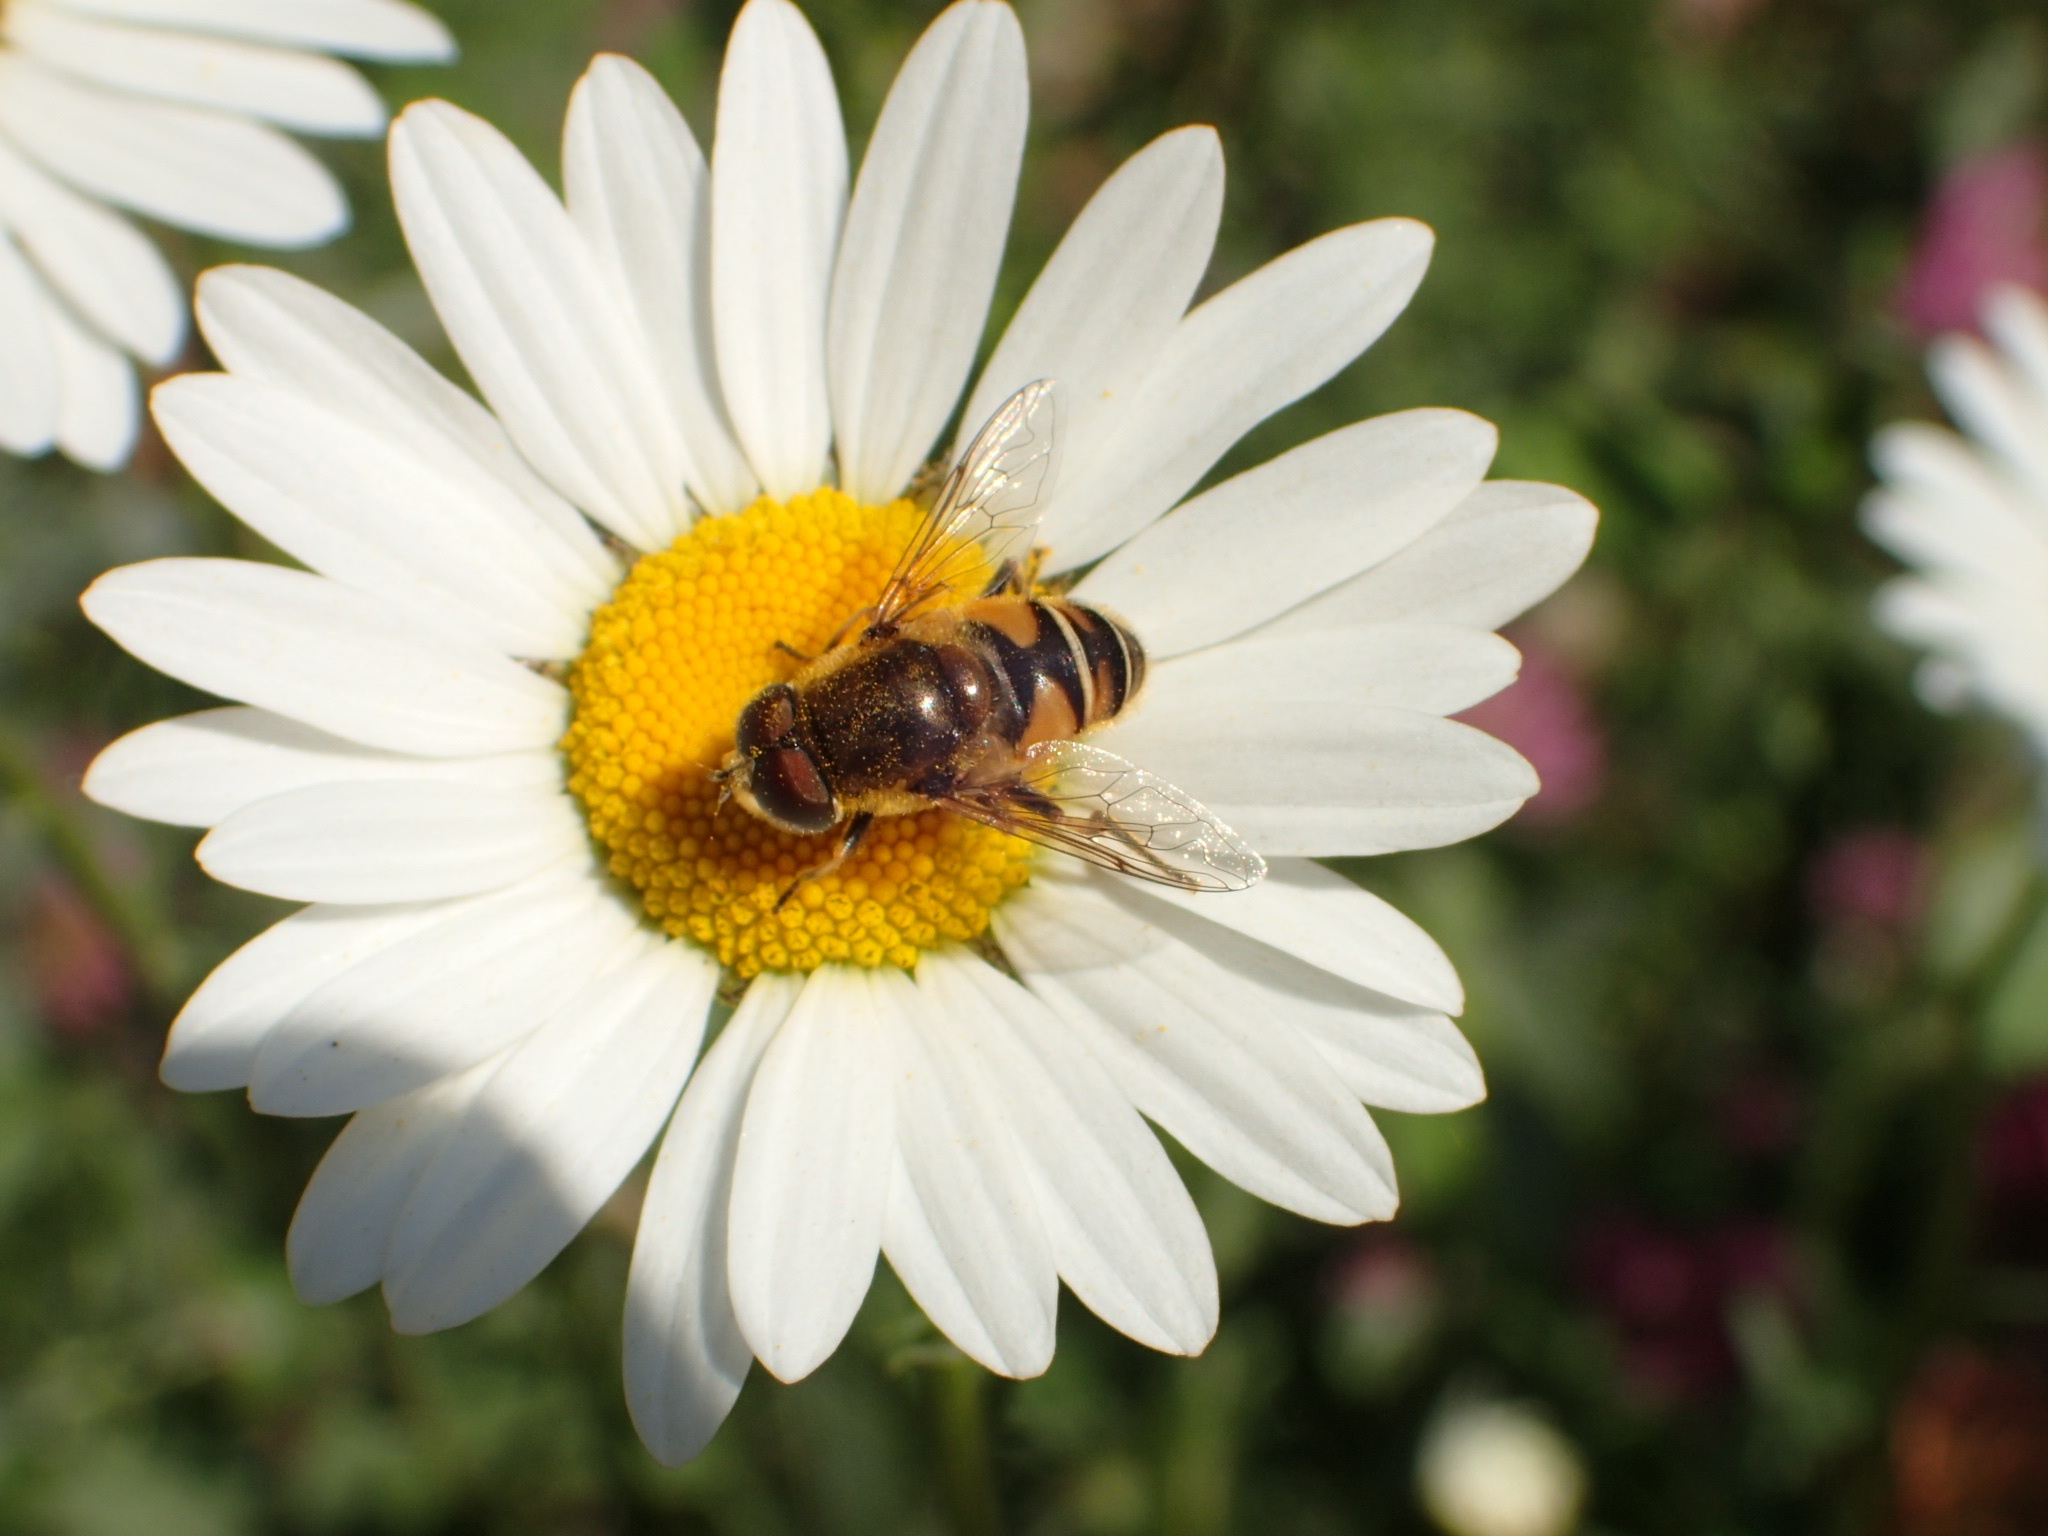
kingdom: Animalia
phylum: Arthropoda
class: Insecta
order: Diptera
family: Syrphidae
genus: Eristalis
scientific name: Eristalis nemorum
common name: Orange-spined drone fly
